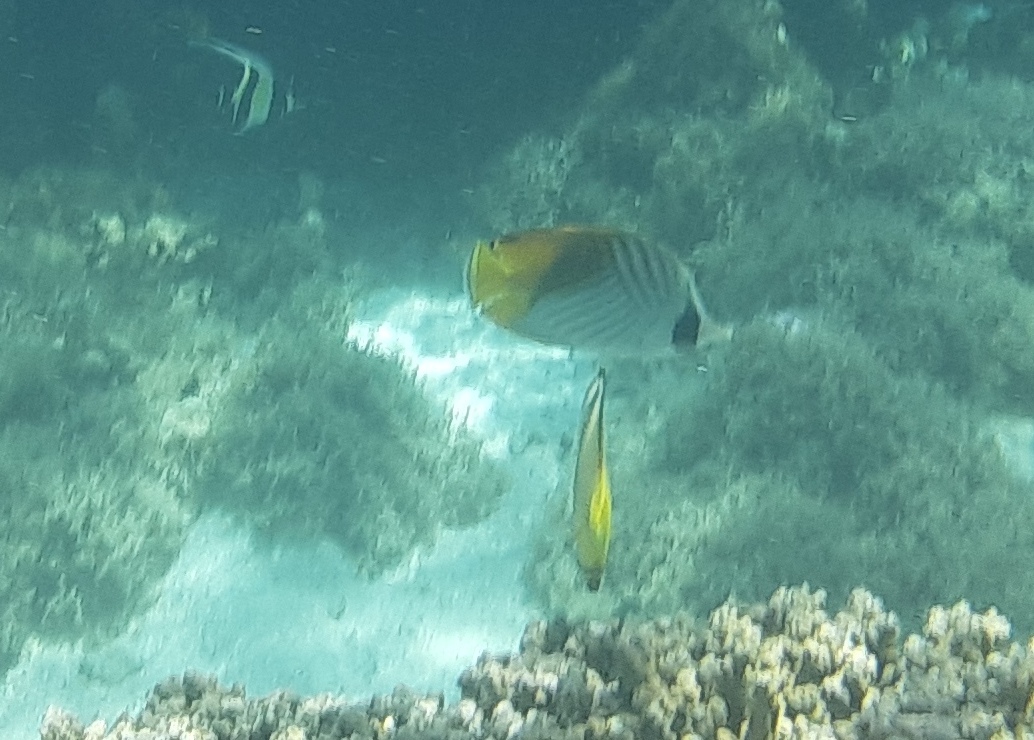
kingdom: Animalia
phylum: Chordata
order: Perciformes
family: Chaetodontidae
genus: Chaetodon
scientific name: Chaetodon auriga
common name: Threadfin butterflyfish
